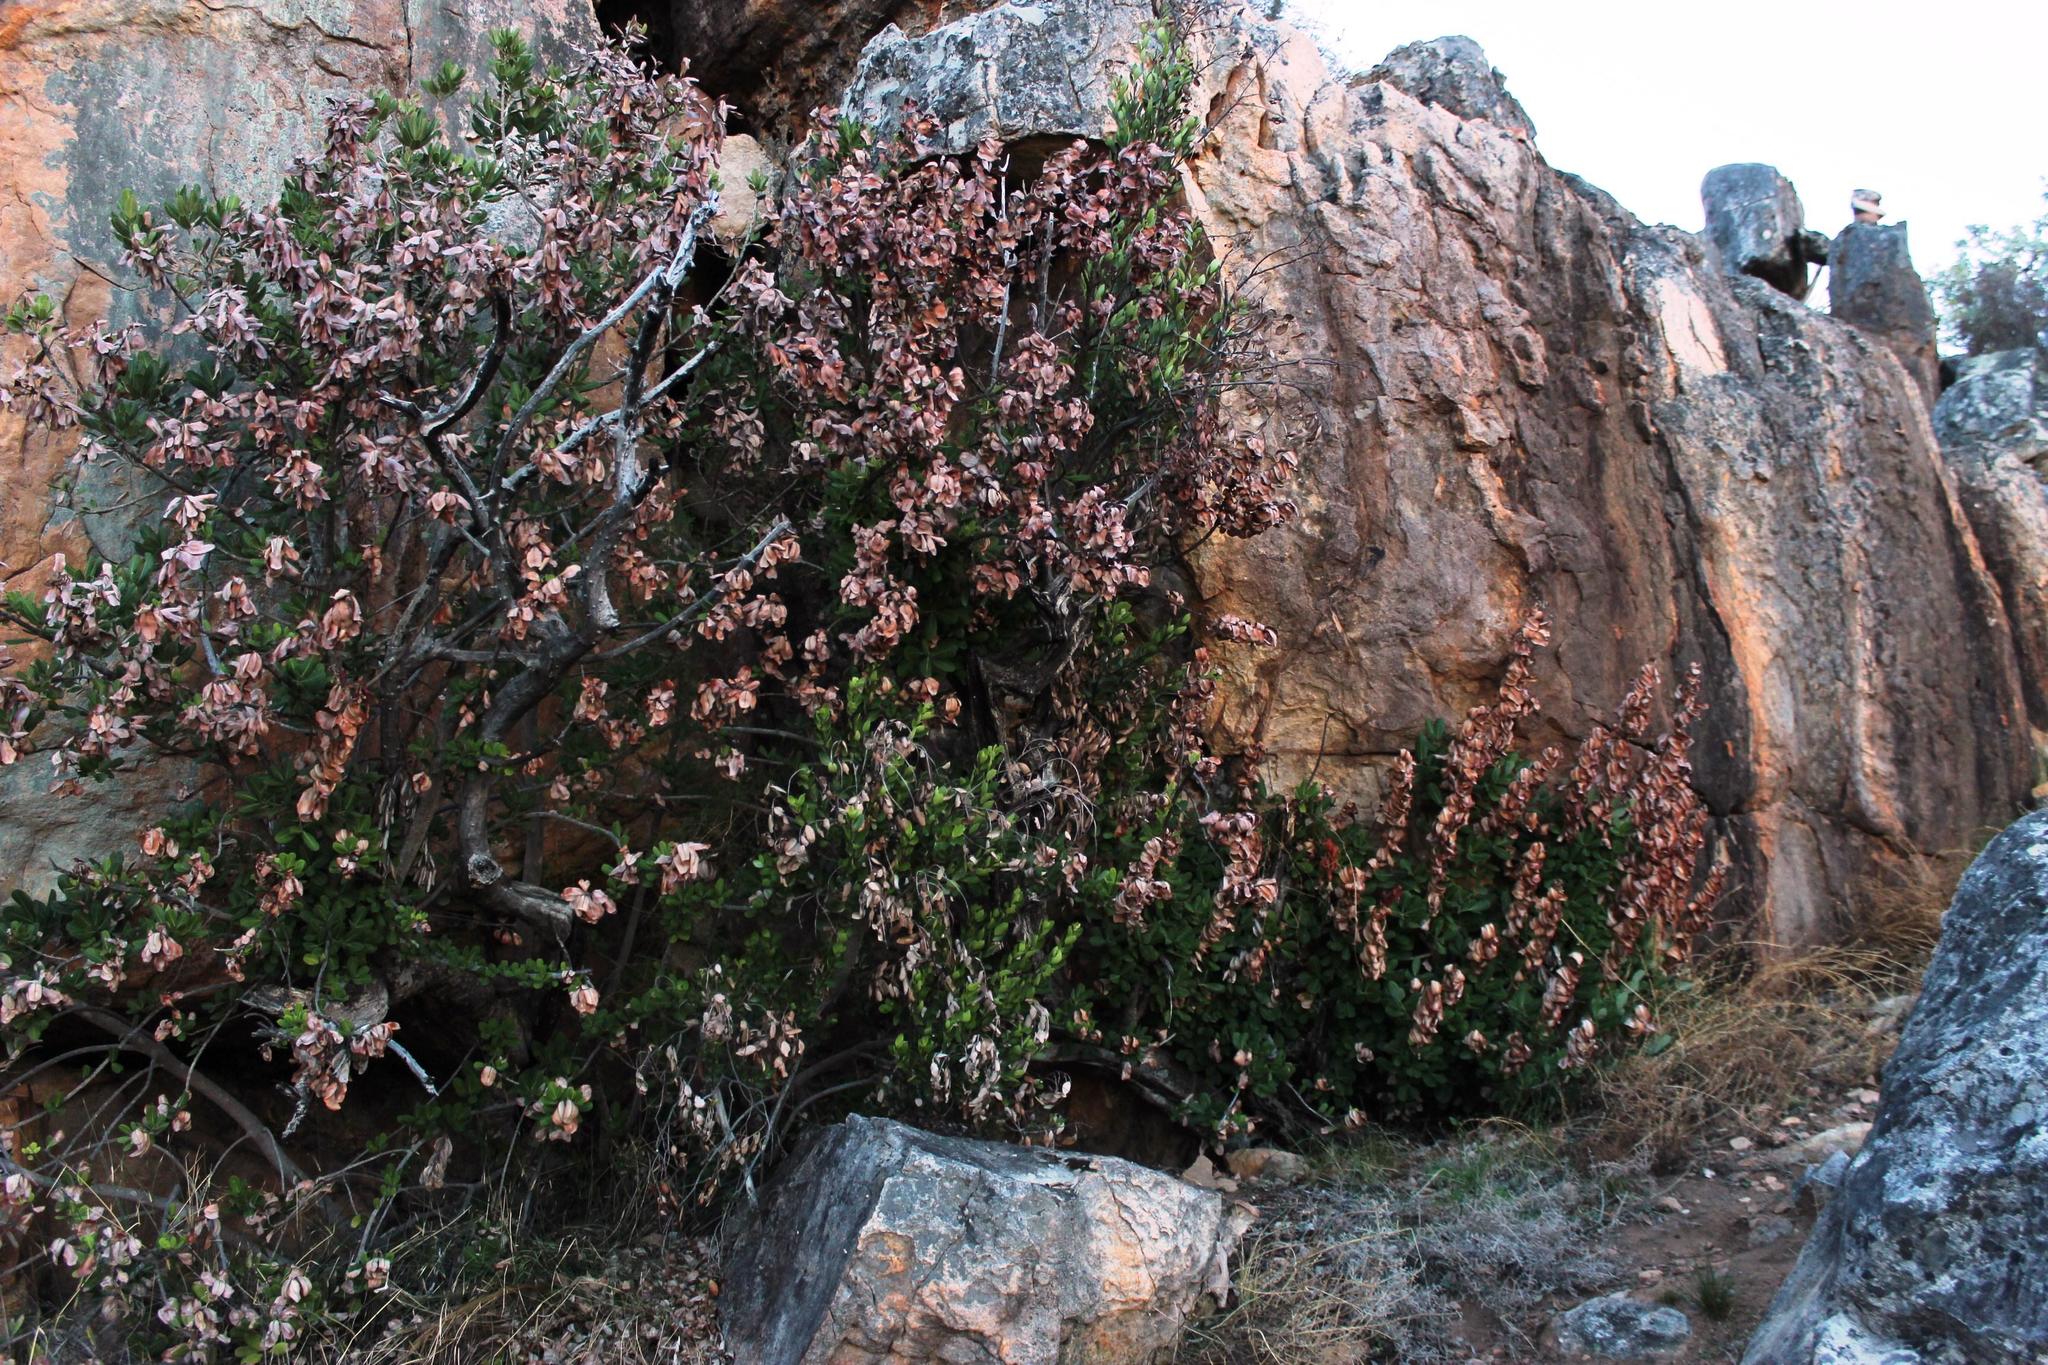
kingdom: Plantae
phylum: Tracheophyta
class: Magnoliopsida
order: Sapindales
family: Anacardiaceae
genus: Heeria
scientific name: Heeria argentea
